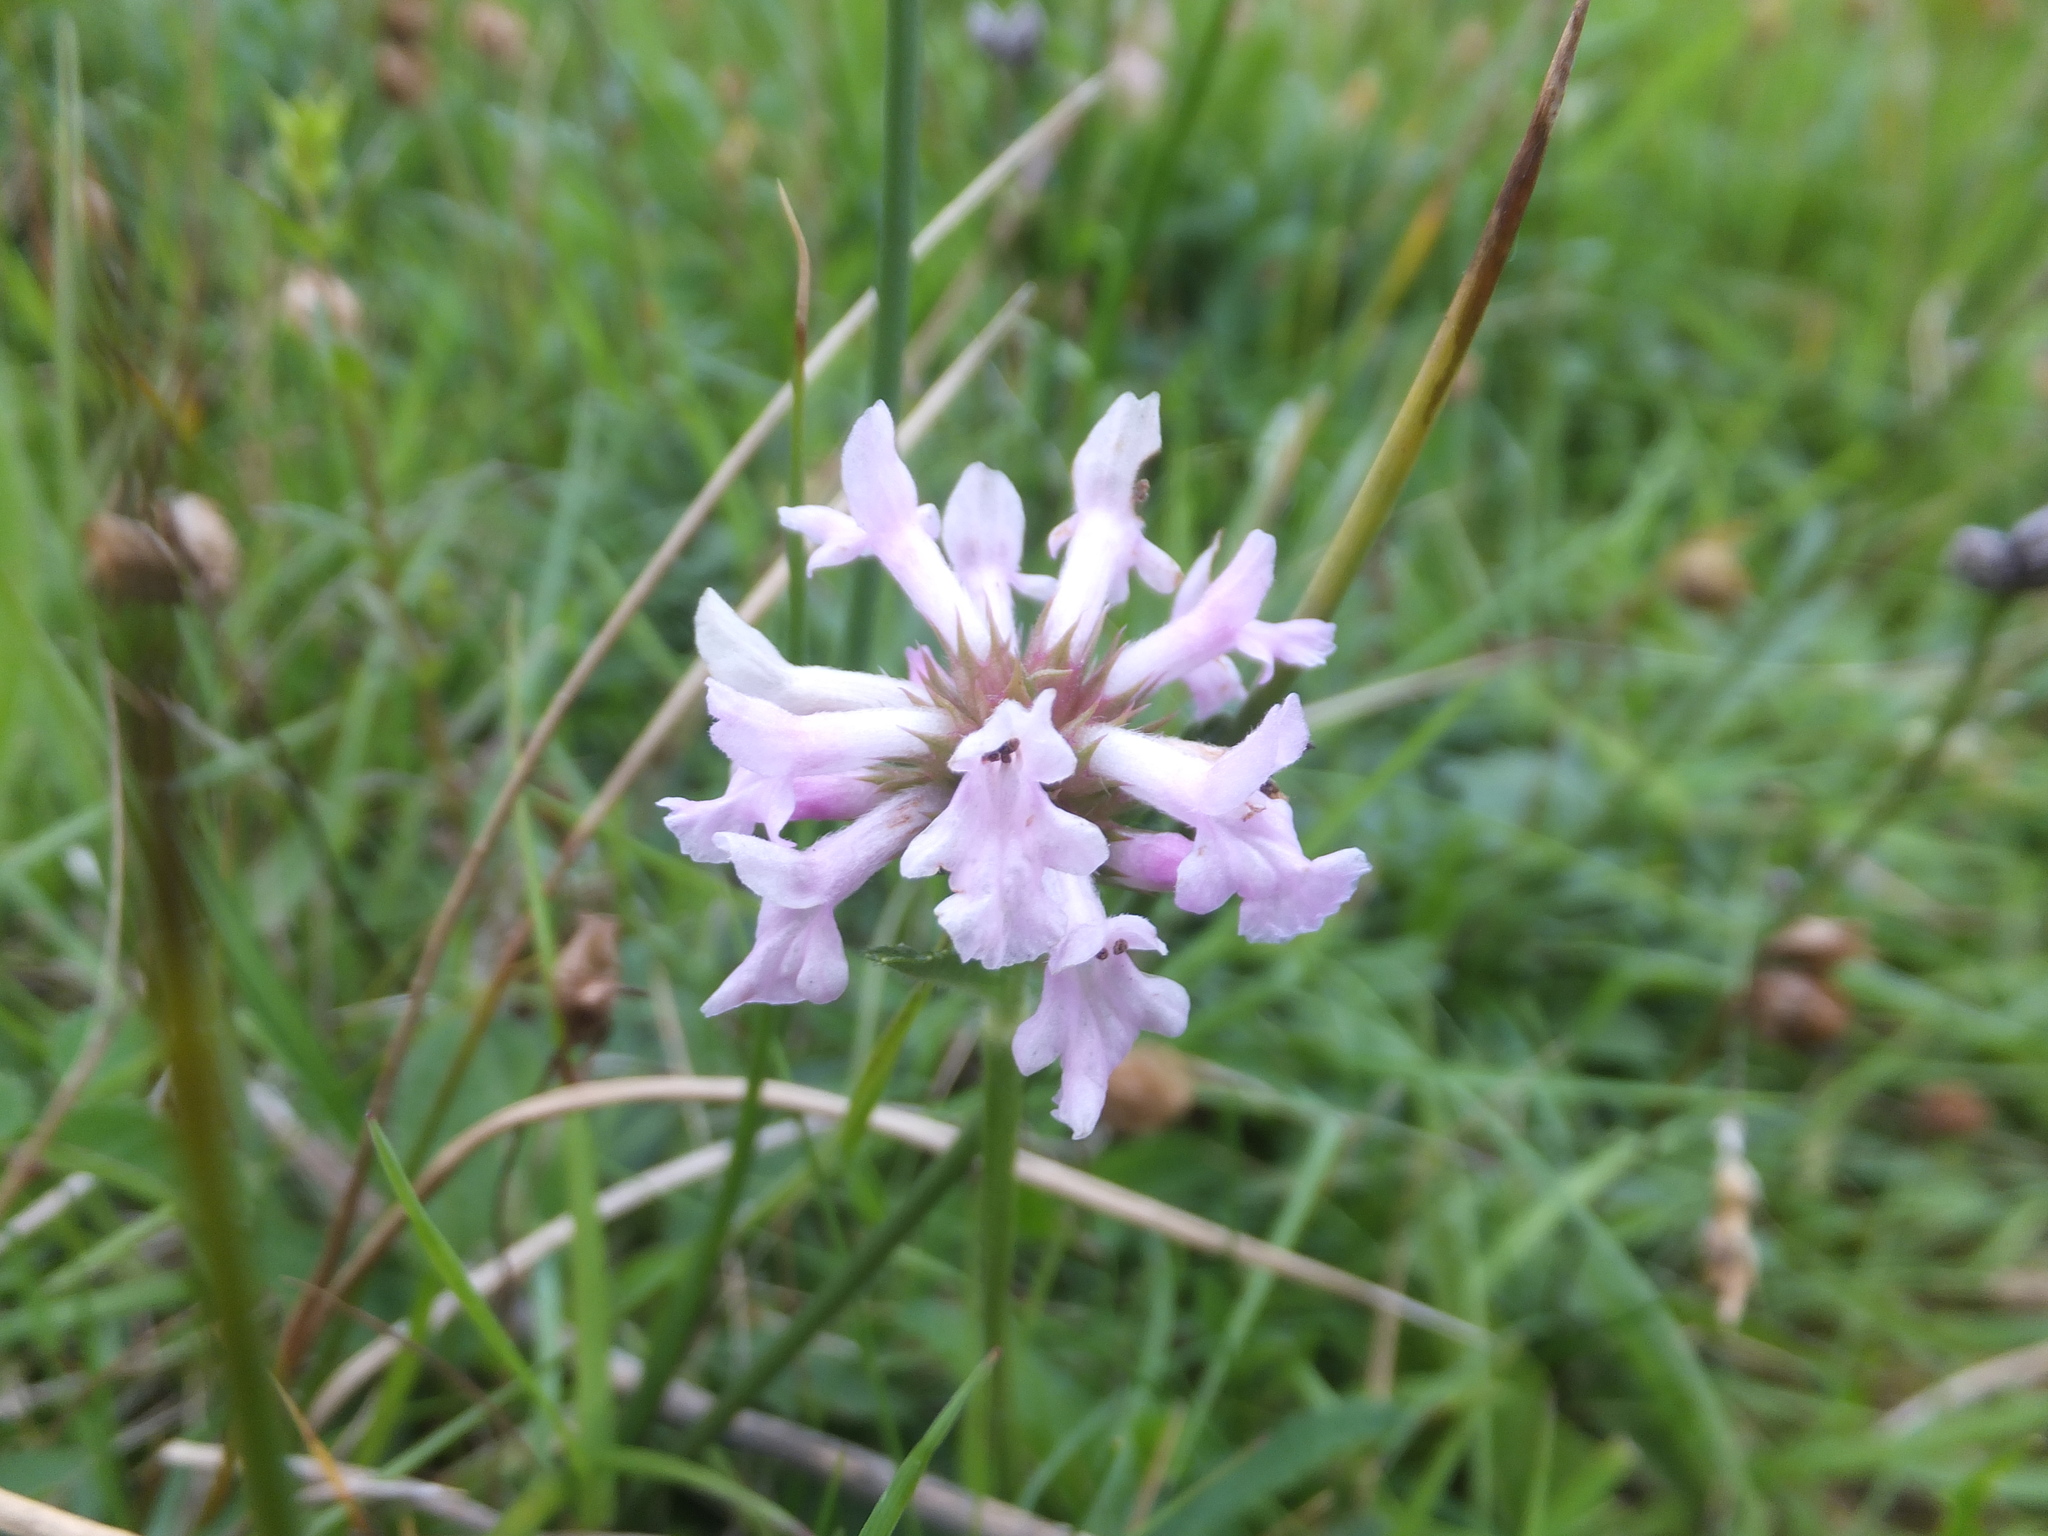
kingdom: Plantae
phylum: Tracheophyta
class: Magnoliopsida
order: Lamiales
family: Lamiaceae
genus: Betonica
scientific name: Betonica officinalis
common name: Bishop's-wort
